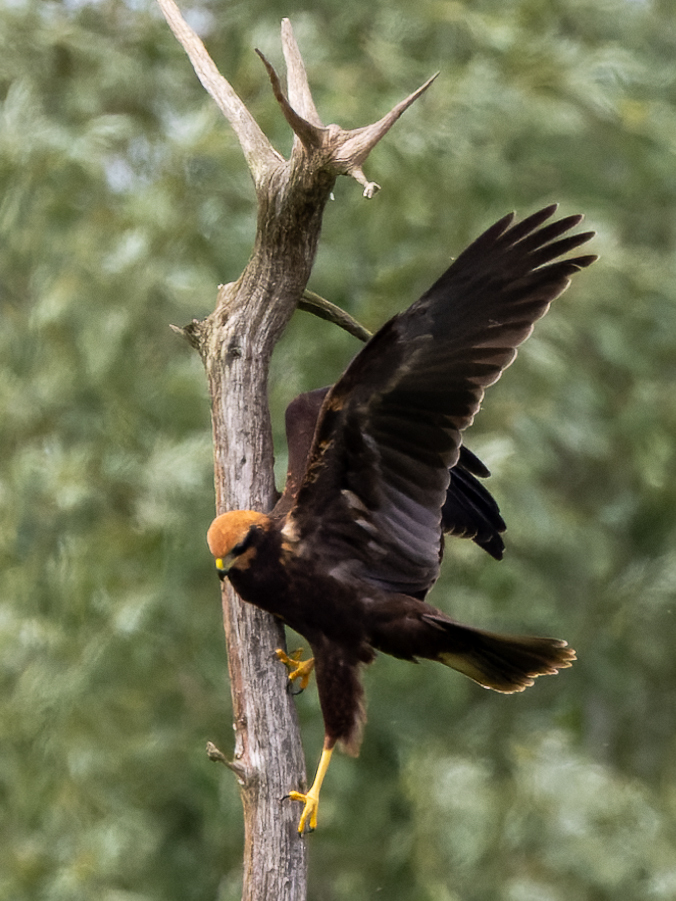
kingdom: Animalia
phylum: Chordata
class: Aves
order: Accipitriformes
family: Accipitridae
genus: Circus
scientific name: Circus aeruginosus
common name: Western marsh harrier
